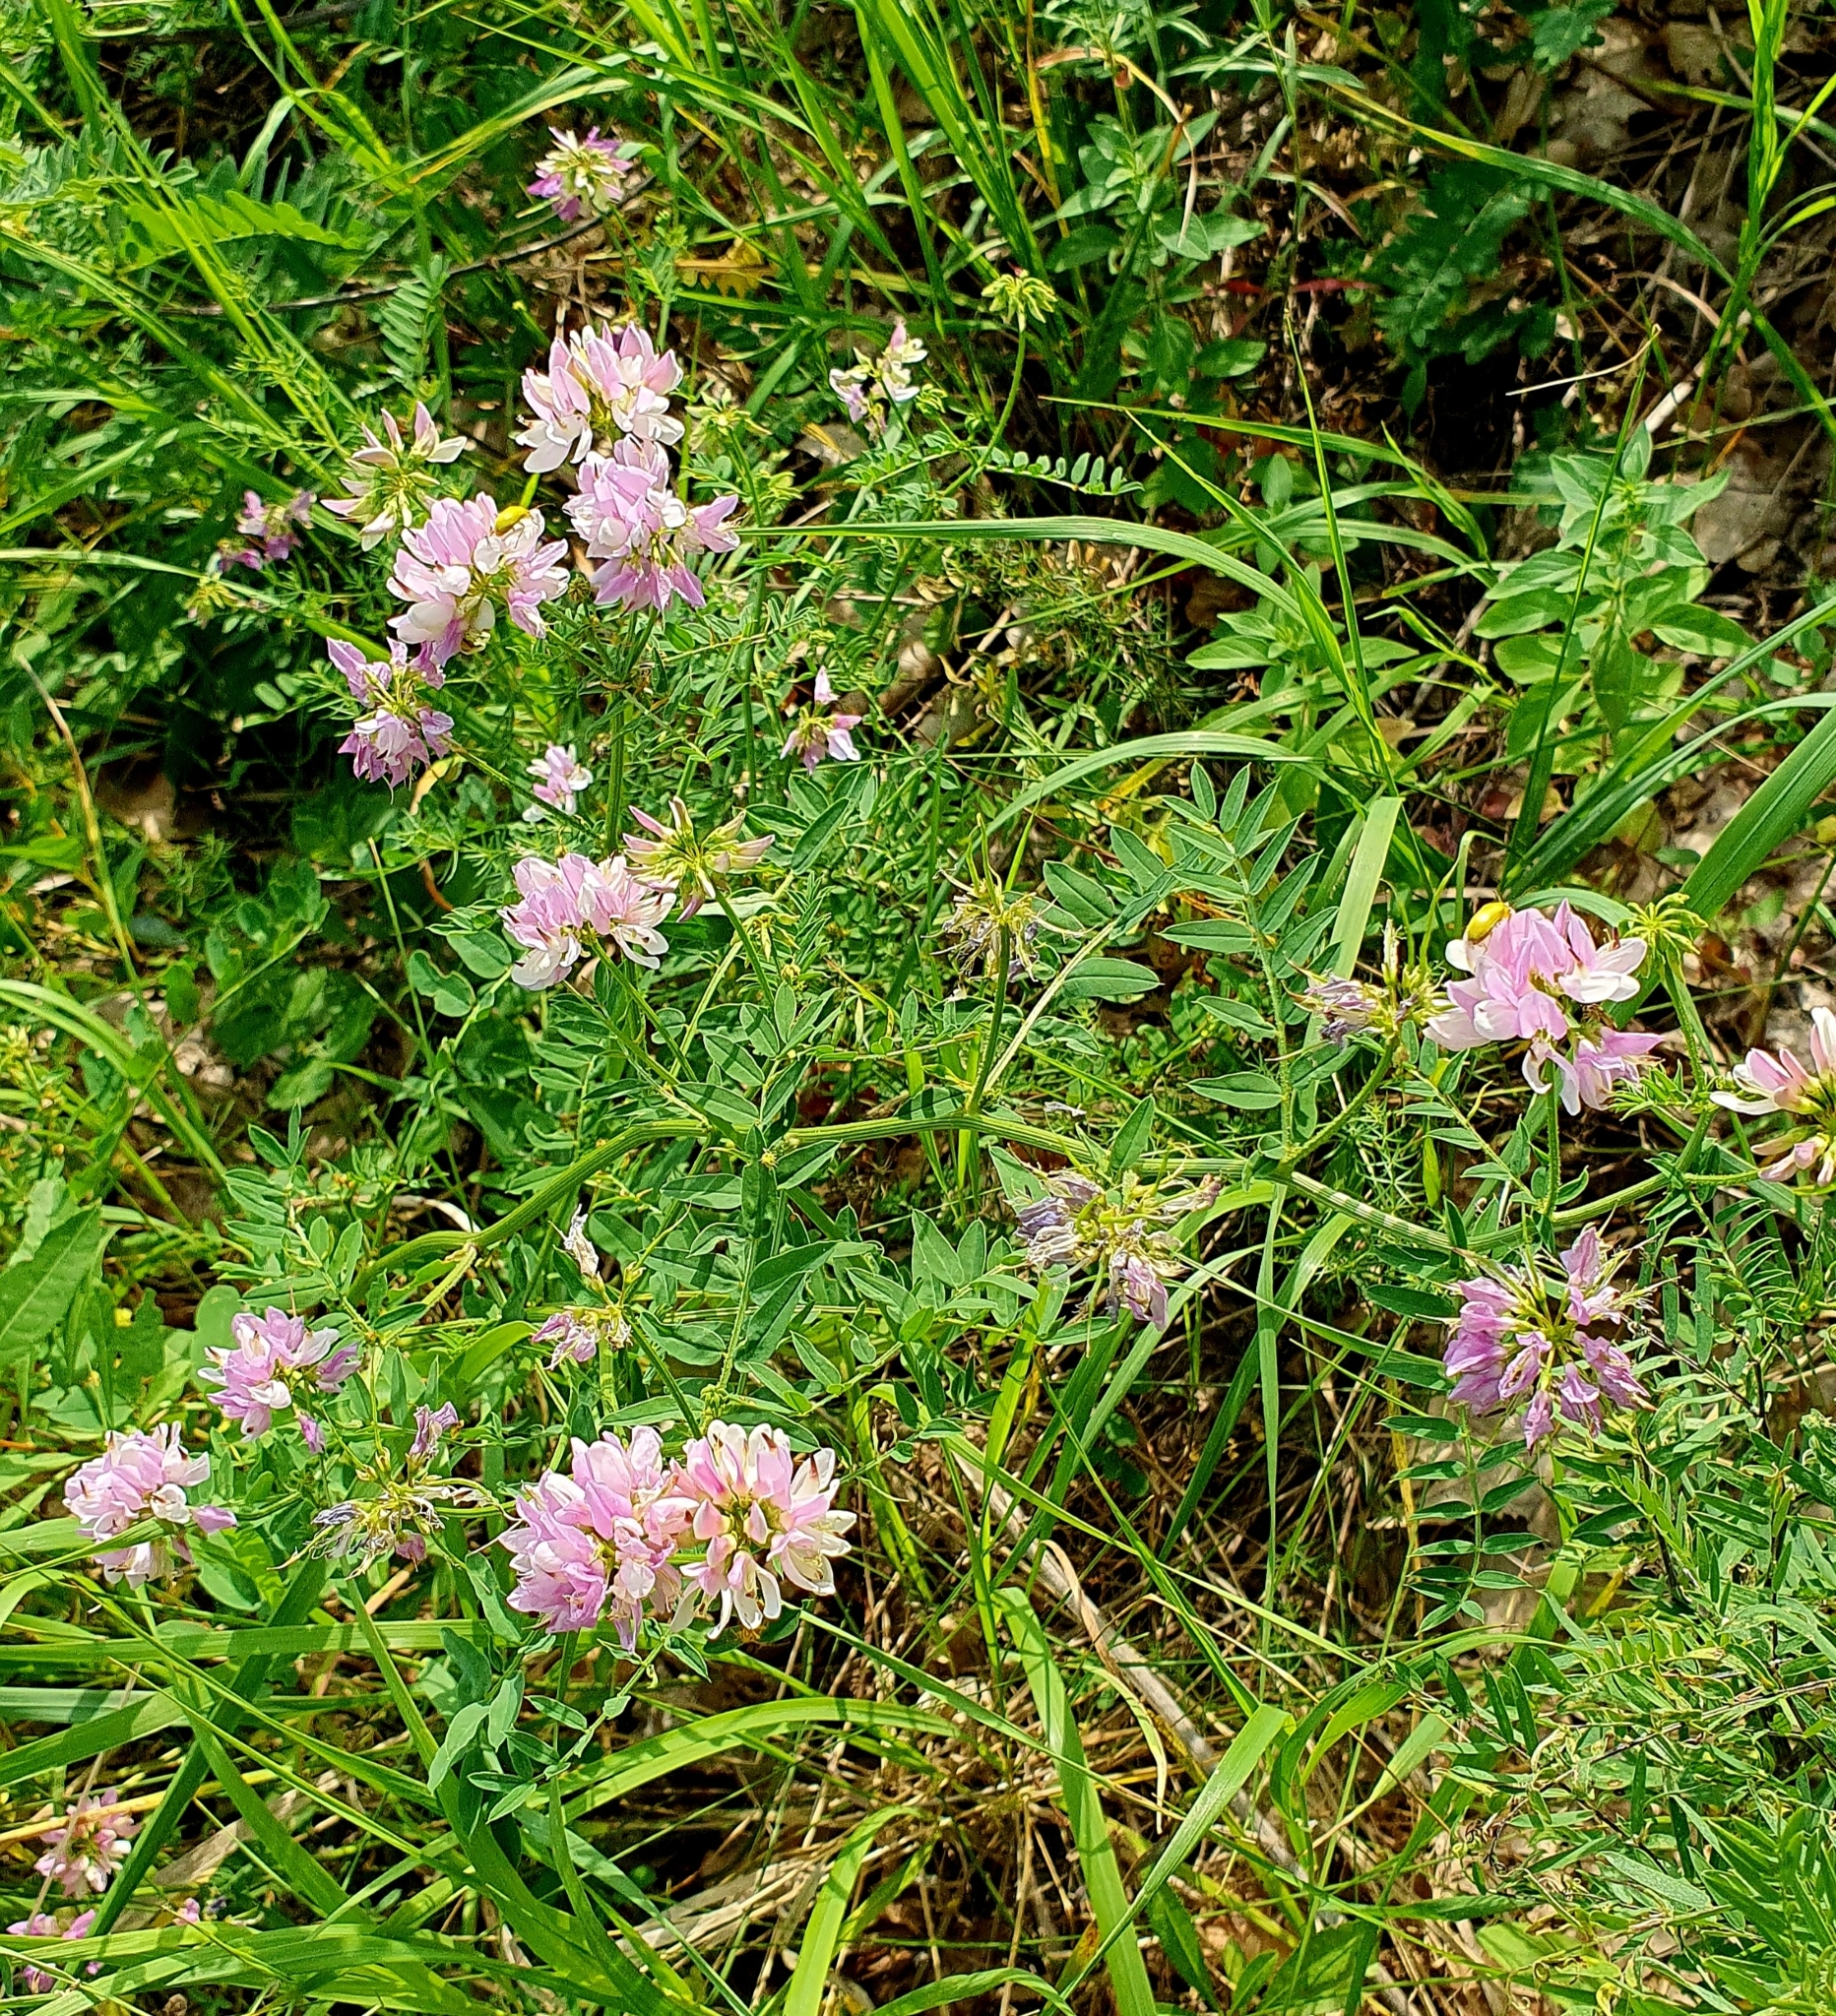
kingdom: Plantae
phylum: Tracheophyta
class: Magnoliopsida
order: Fabales
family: Fabaceae
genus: Coronilla
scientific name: Coronilla varia
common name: Crownvetch
